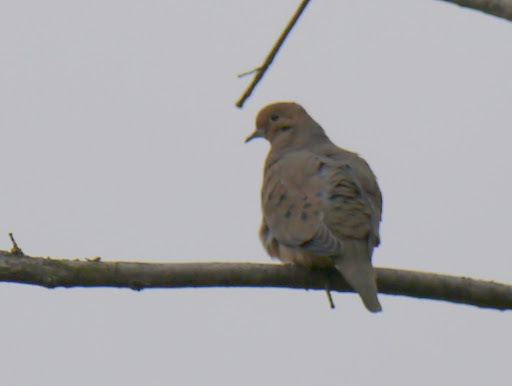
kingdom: Animalia
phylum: Chordata
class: Aves
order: Columbiformes
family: Columbidae
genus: Zenaida
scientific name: Zenaida macroura
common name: Mourning dove
